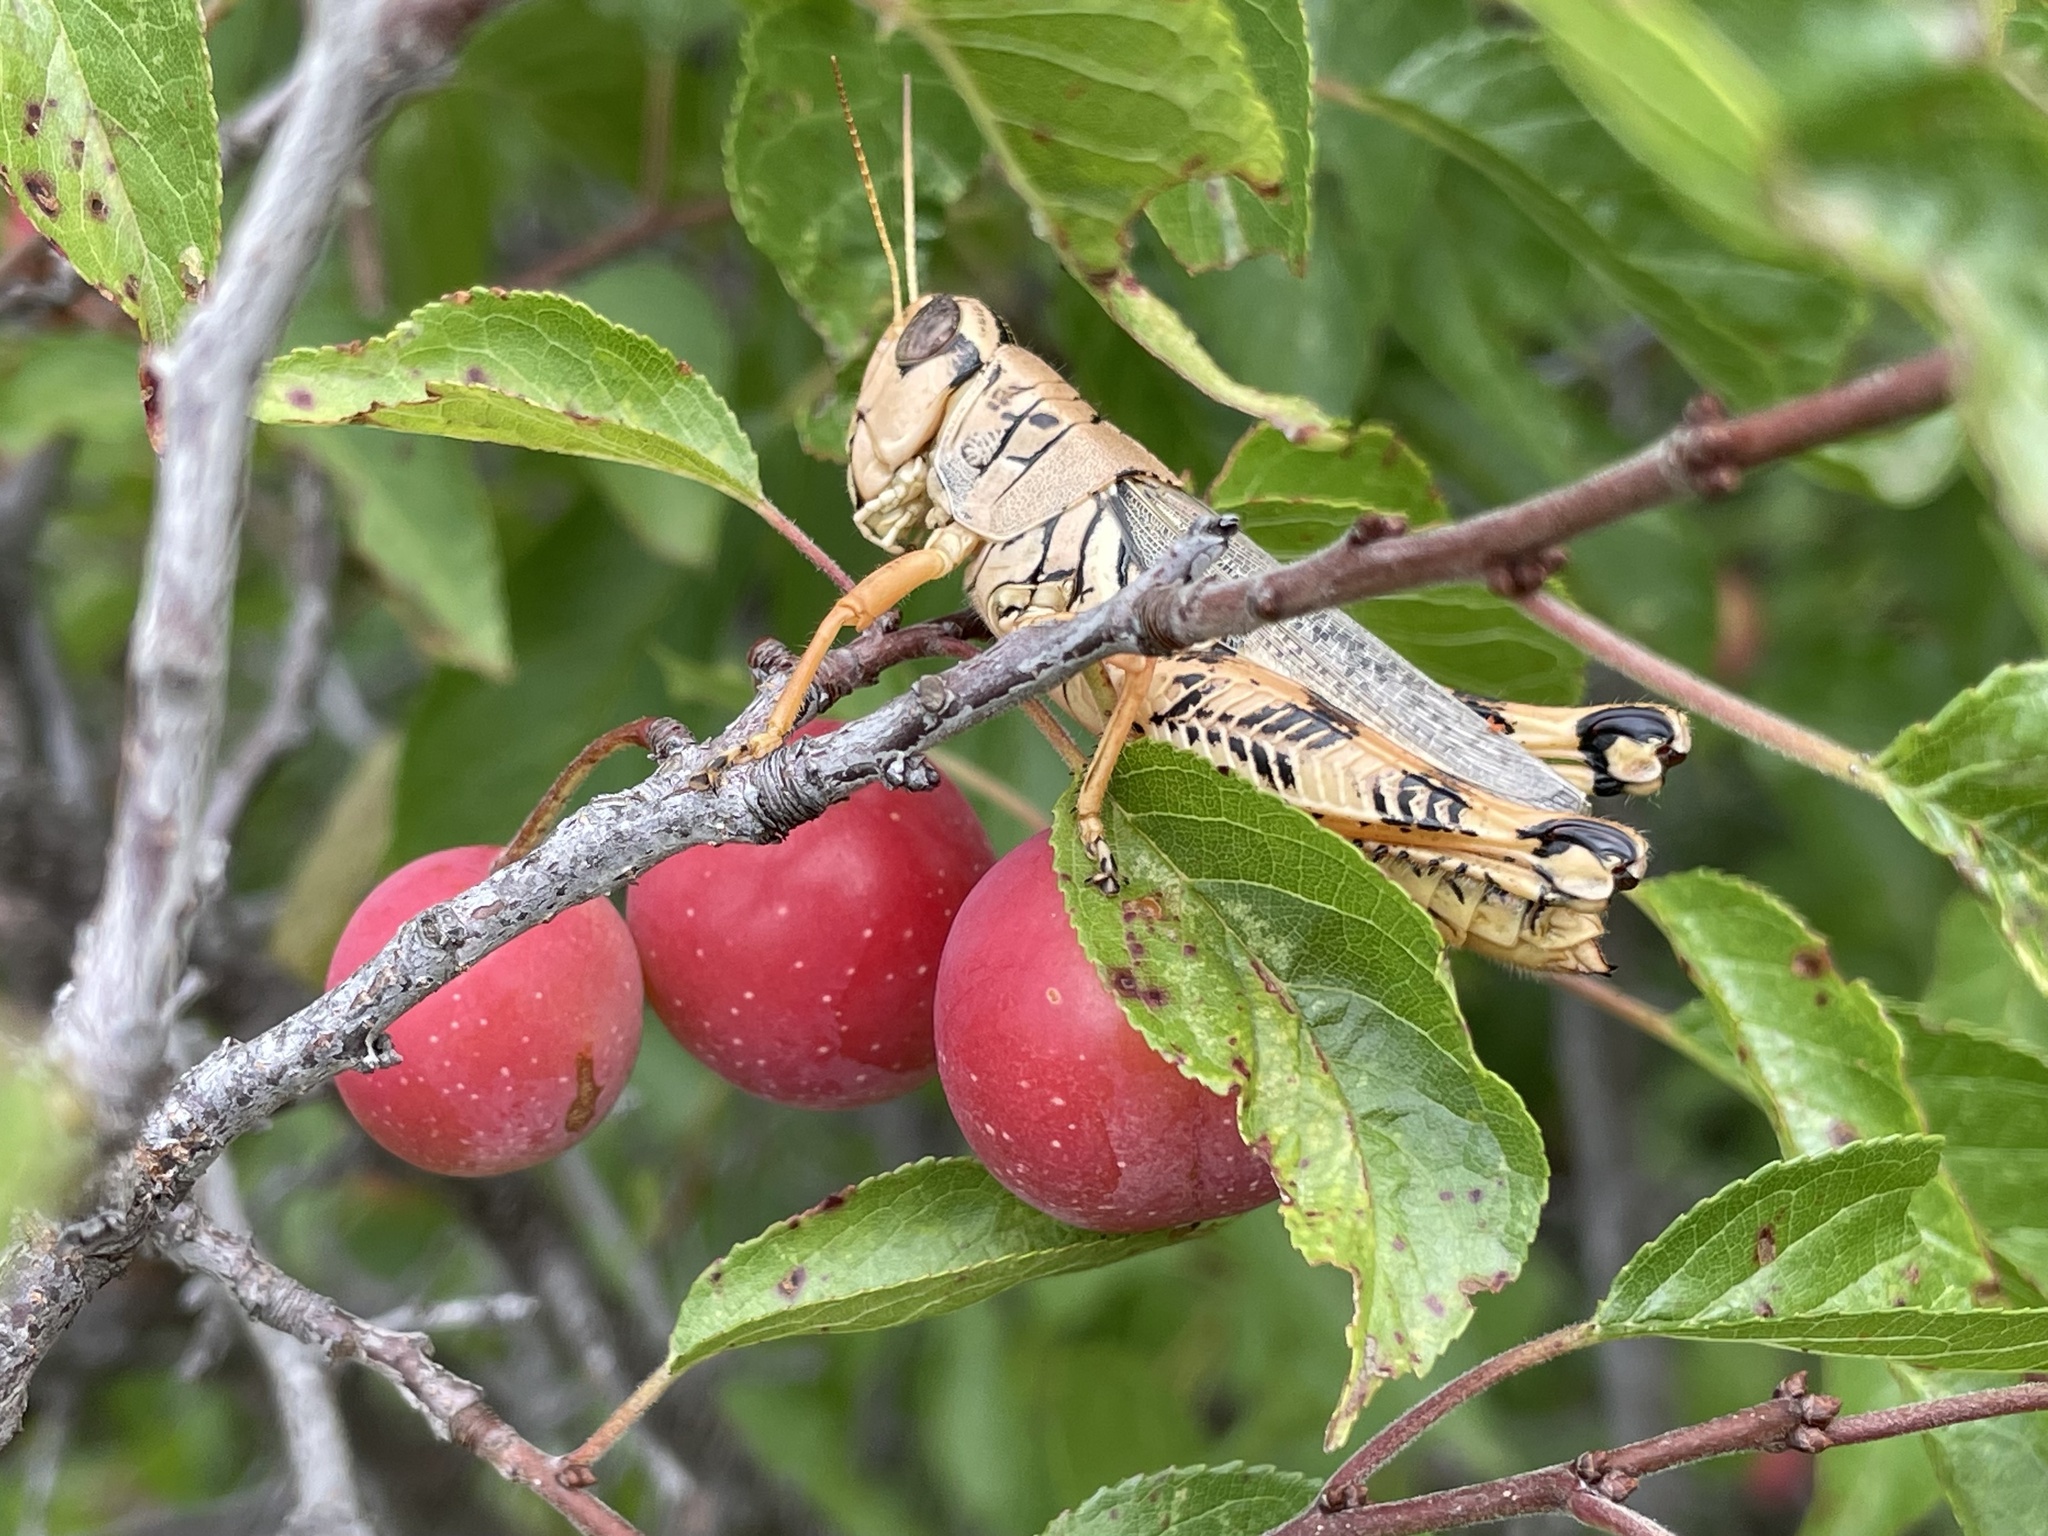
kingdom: Animalia
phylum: Arthropoda
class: Insecta
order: Orthoptera
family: Acrididae
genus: Melanoplus
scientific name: Melanoplus ponderosus
